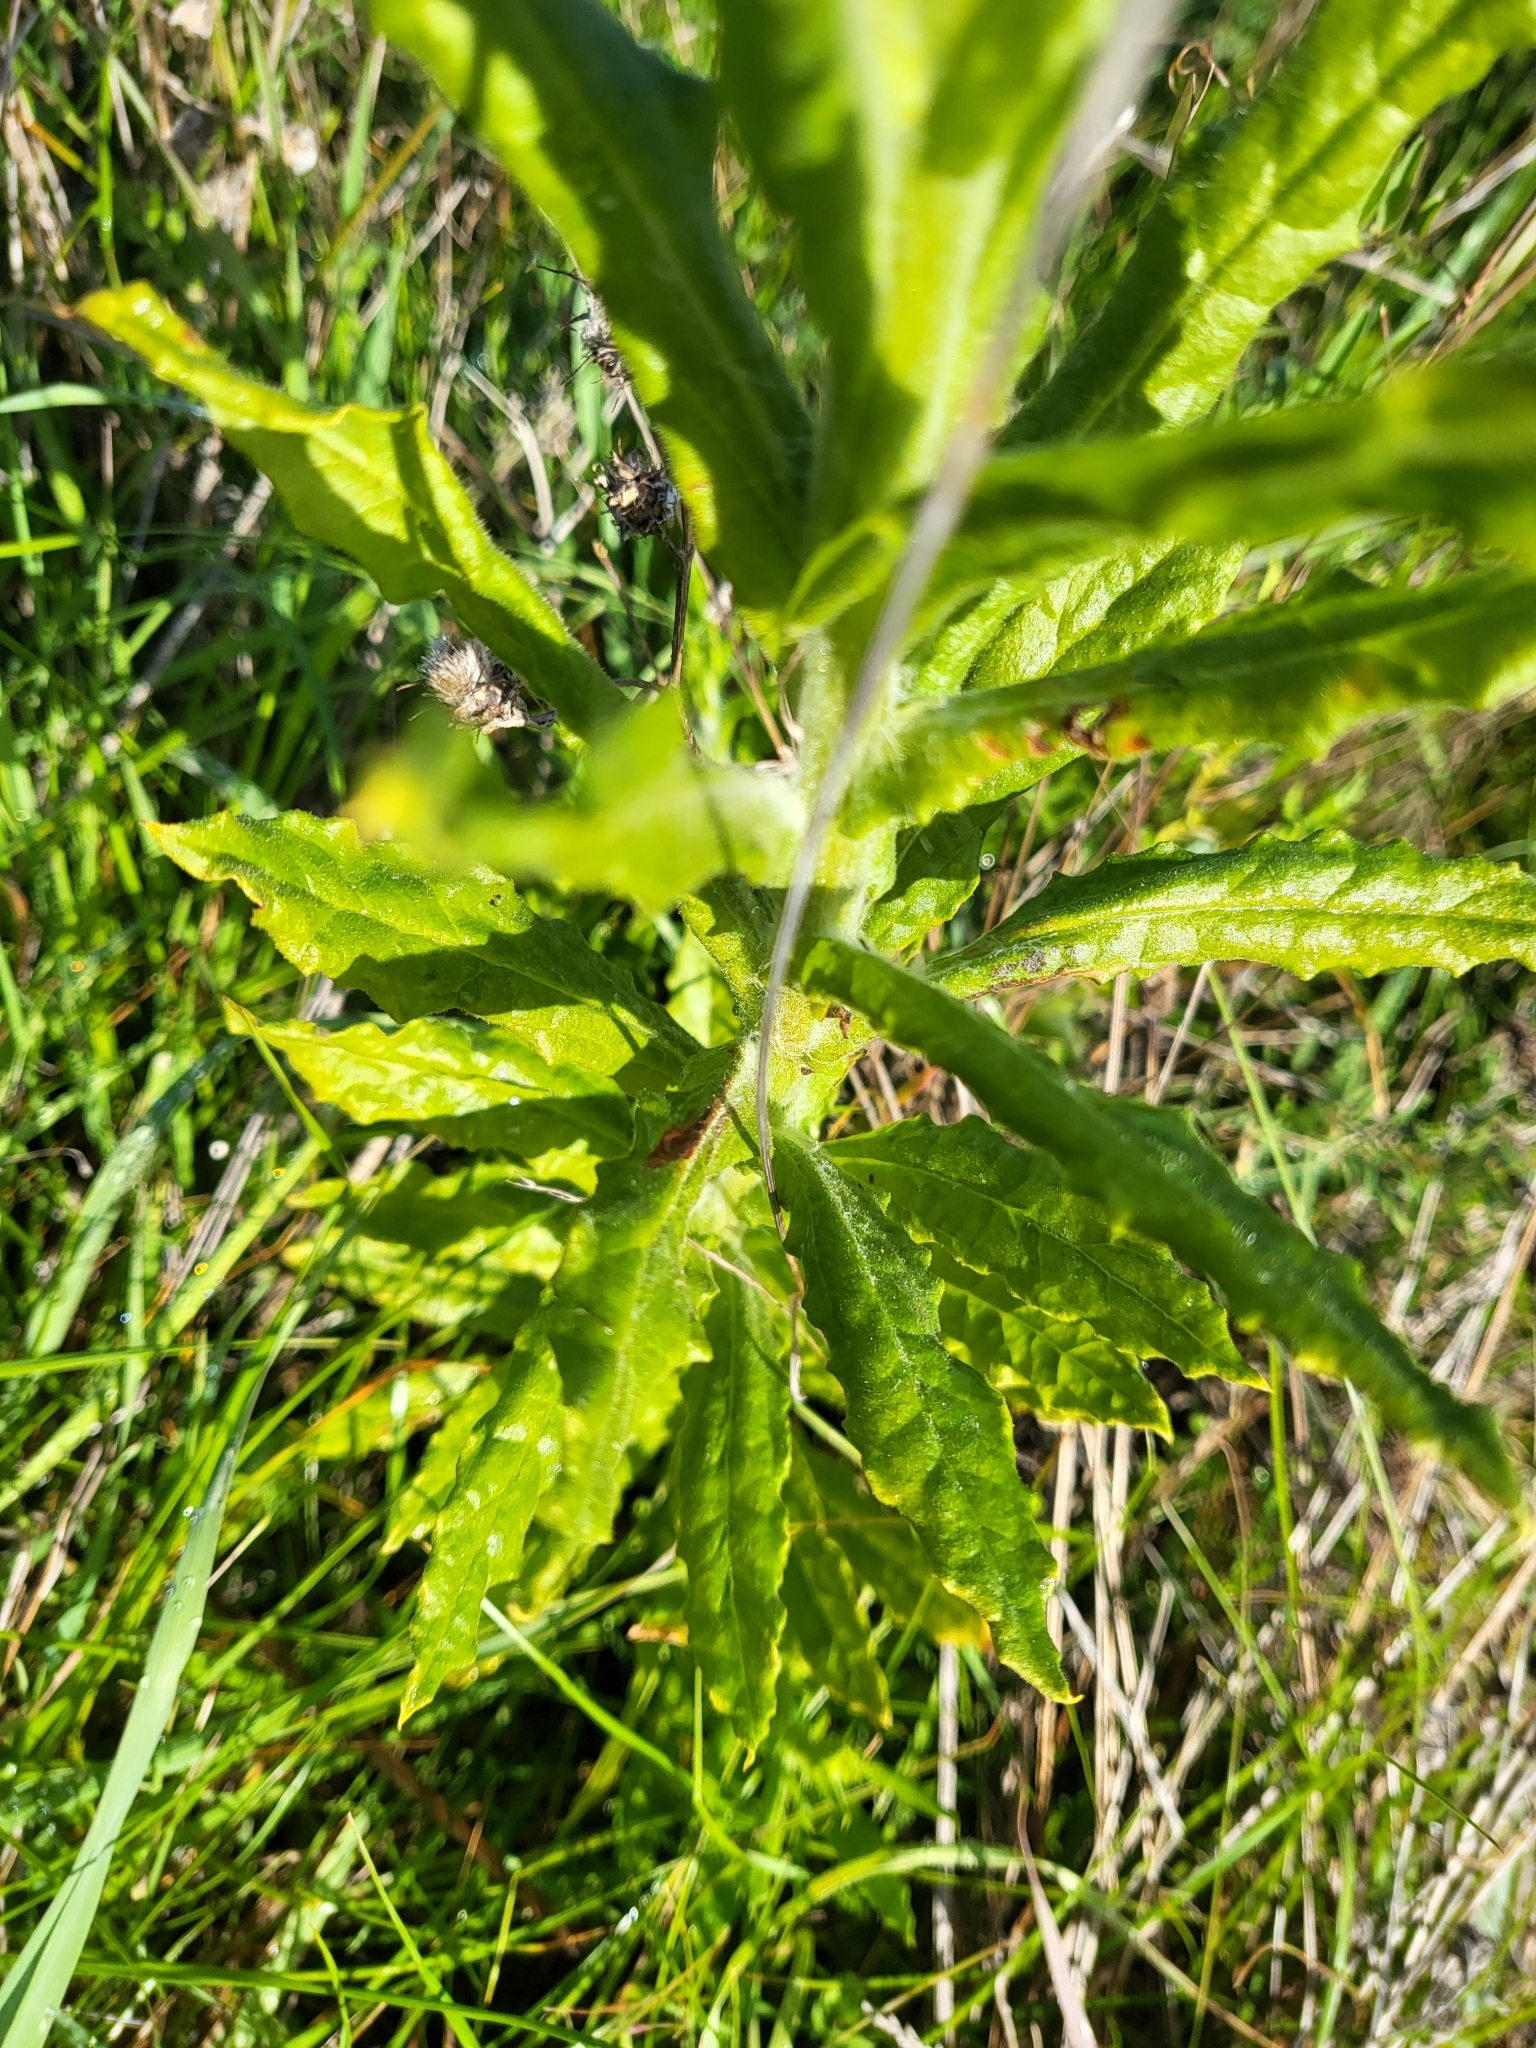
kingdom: Plantae
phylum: Tracheophyta
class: Magnoliopsida
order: Asterales
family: Asteraceae
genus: Pseudognaphalium
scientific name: Pseudognaphalium californicum
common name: California rabbit-tobacco
